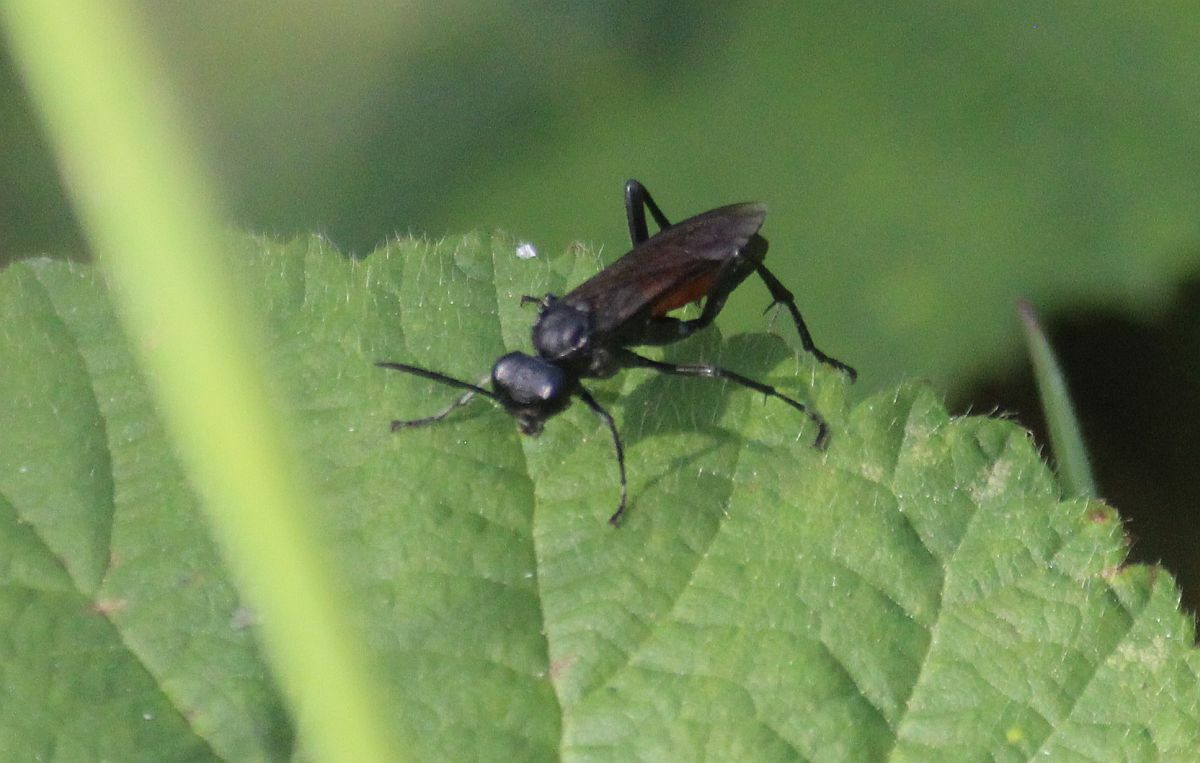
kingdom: Animalia
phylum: Arthropoda
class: Insecta
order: Hymenoptera
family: Tenthredinidae
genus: Macrophya
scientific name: Macrophya annulata
